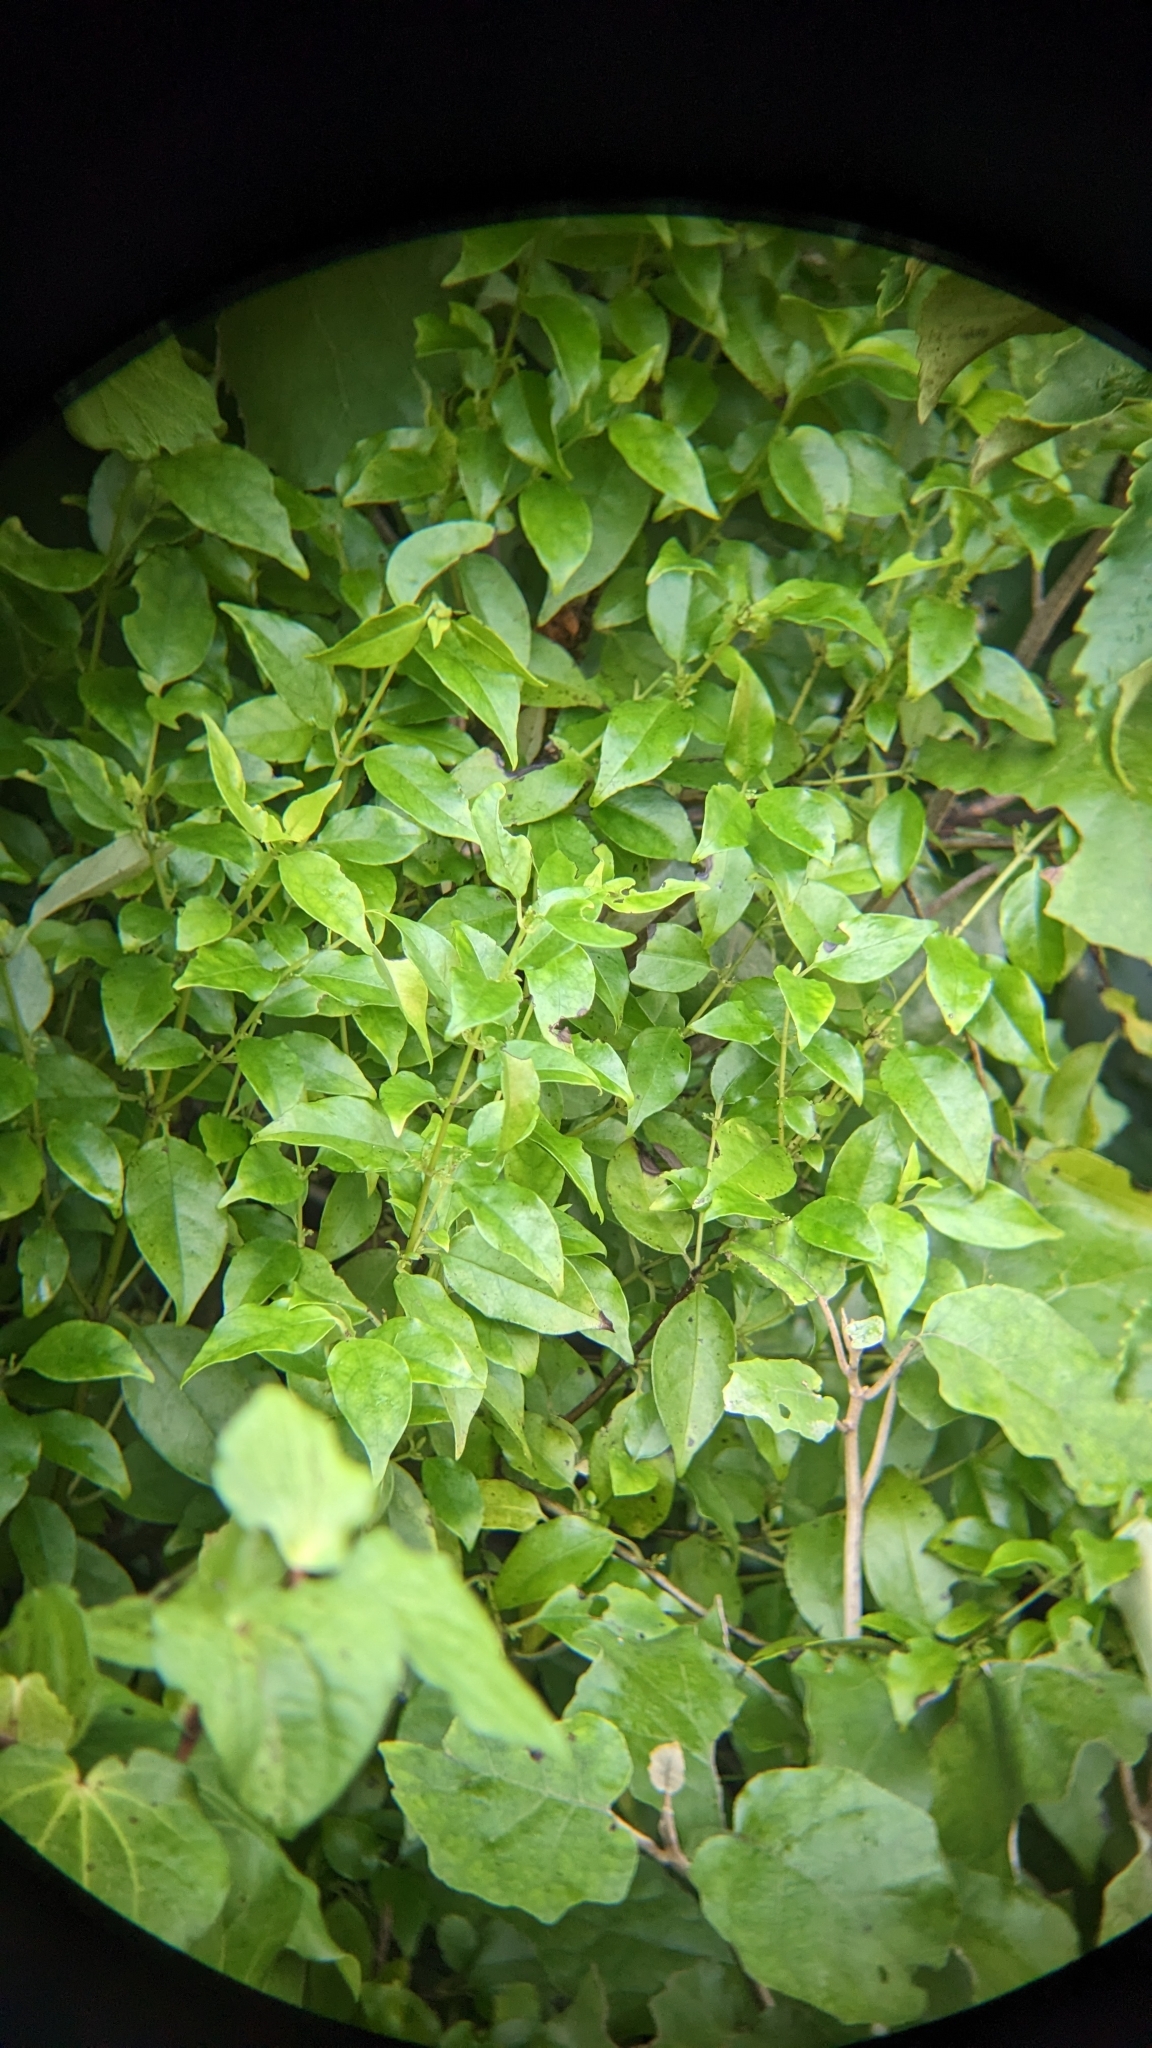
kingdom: Plantae
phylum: Tracheophyta
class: Magnoliopsida
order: Gentianales
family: Loganiaceae
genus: Geniostoma
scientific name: Geniostoma ligustrifolium
